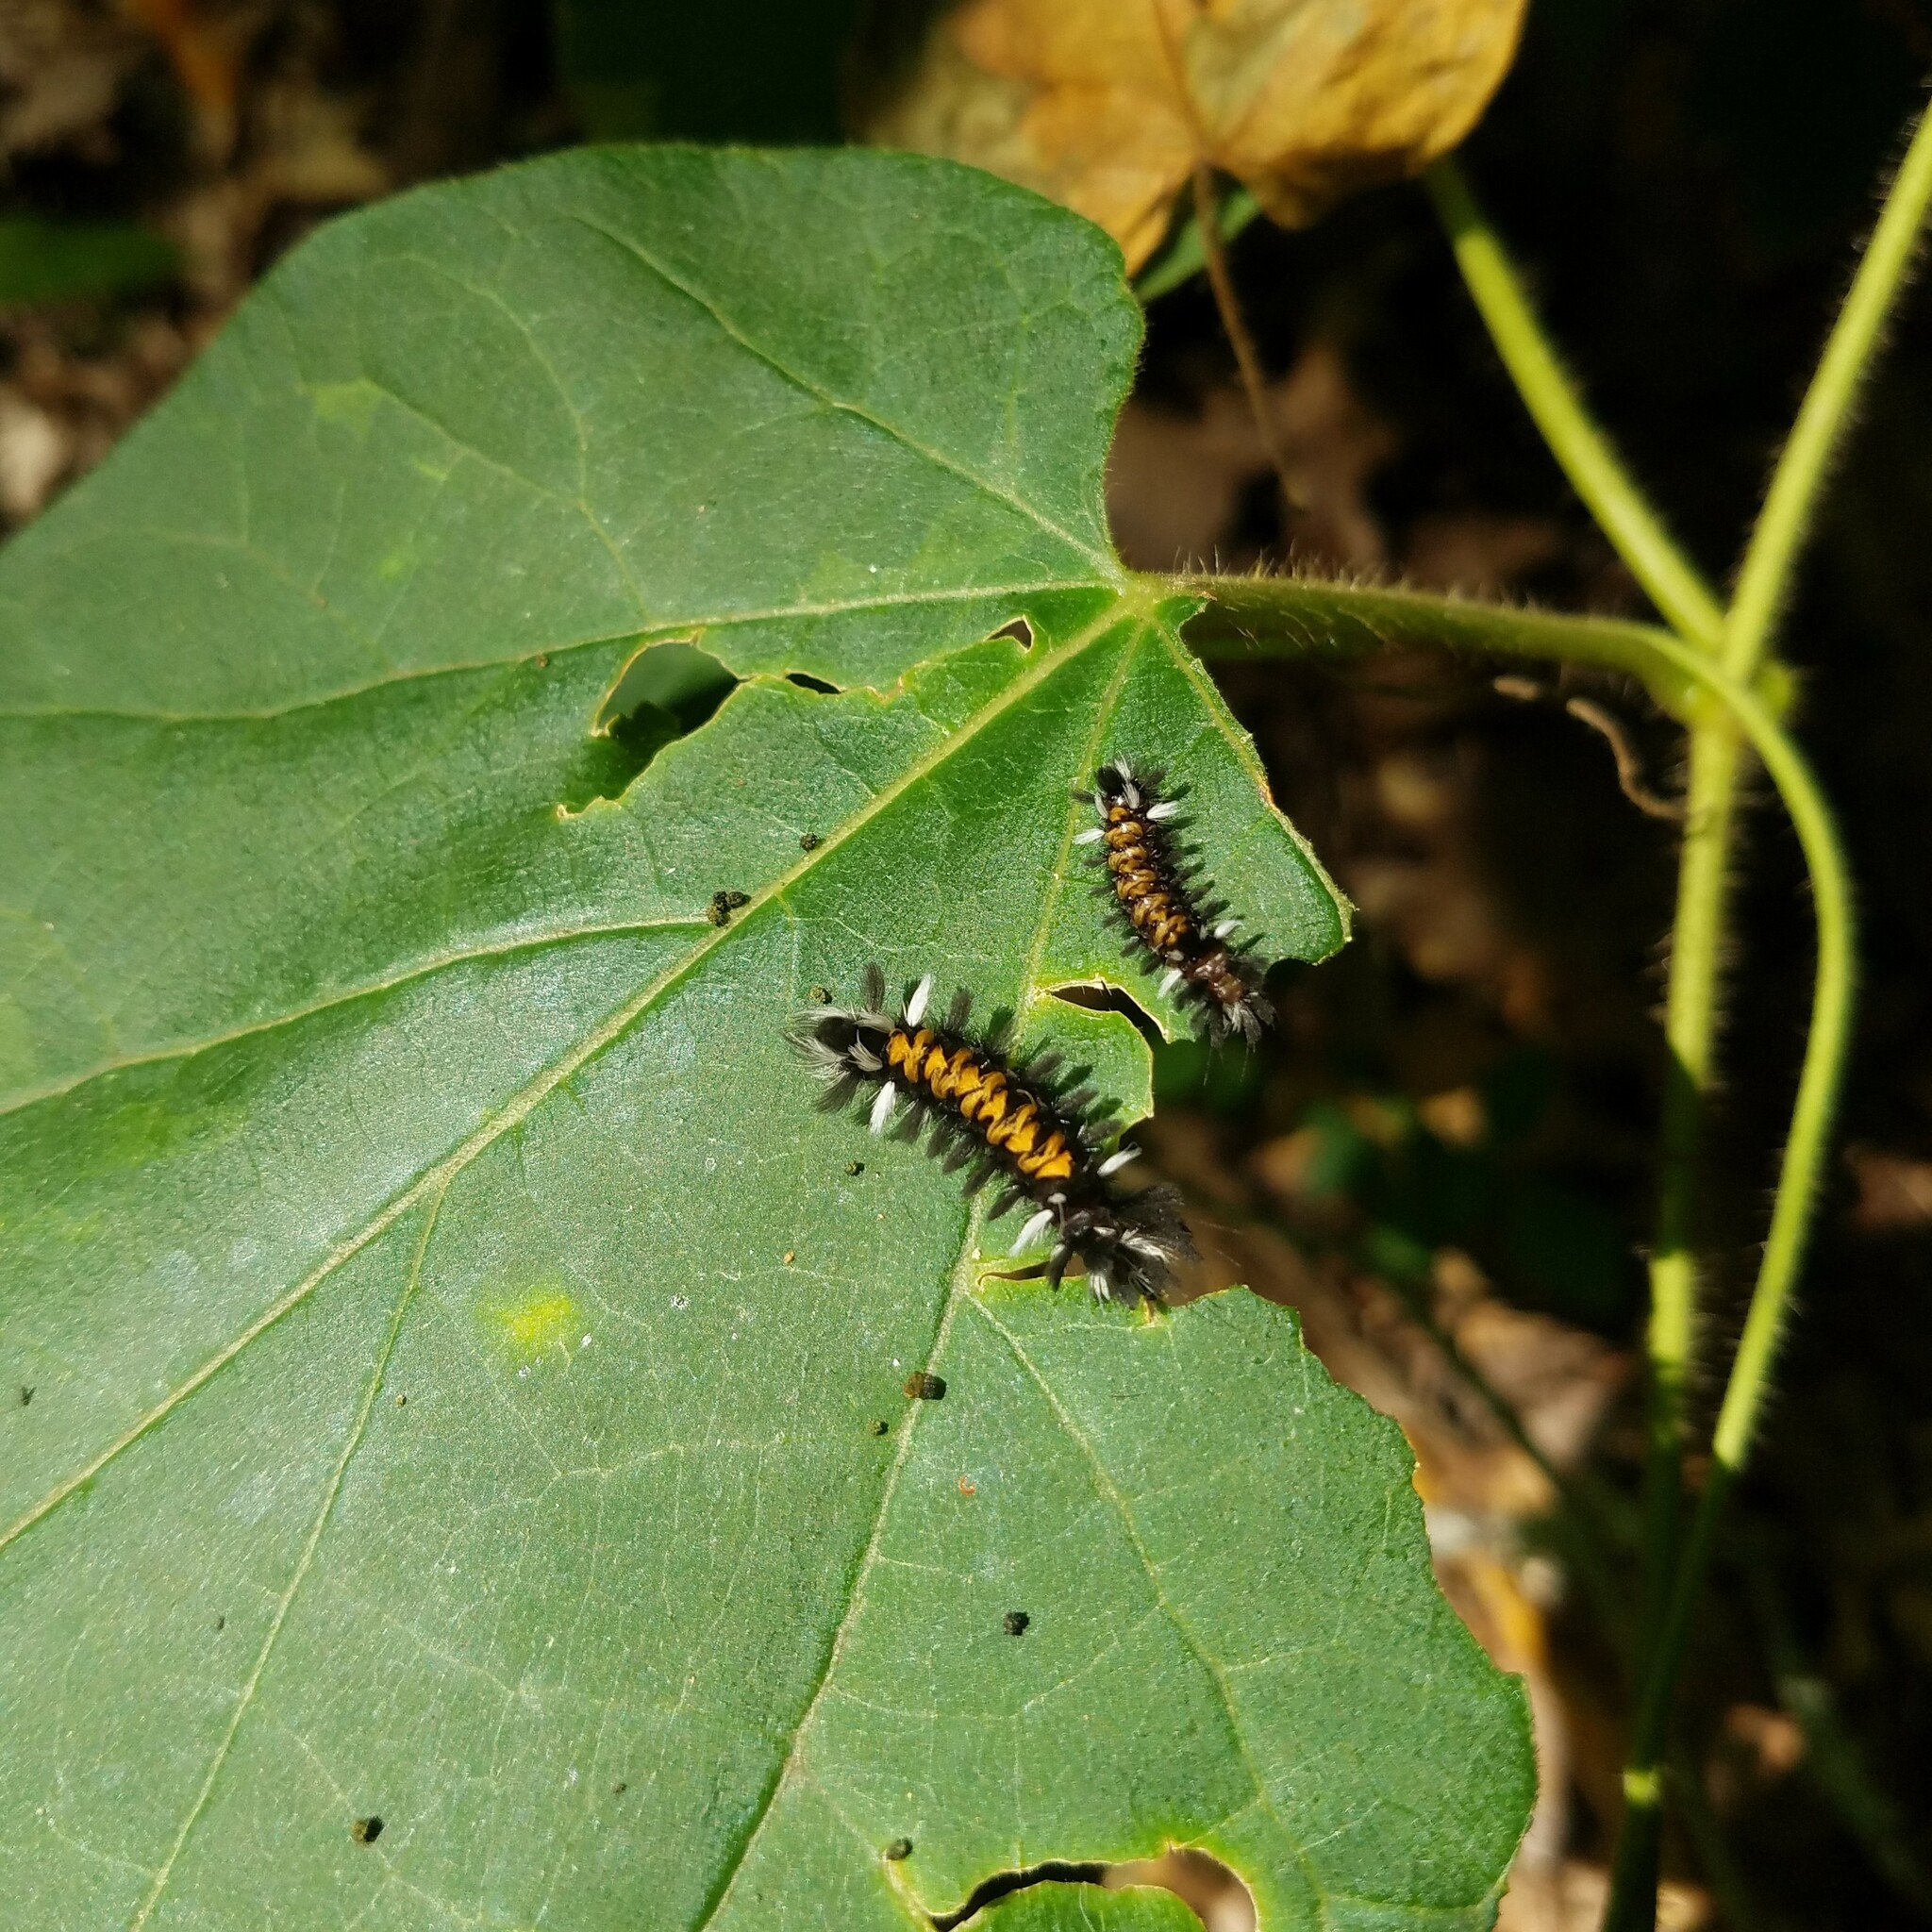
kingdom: Animalia
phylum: Arthropoda
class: Insecta
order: Lepidoptera
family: Erebidae
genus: Euchaetes
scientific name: Euchaetes egle
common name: Milkweed tussock moth
